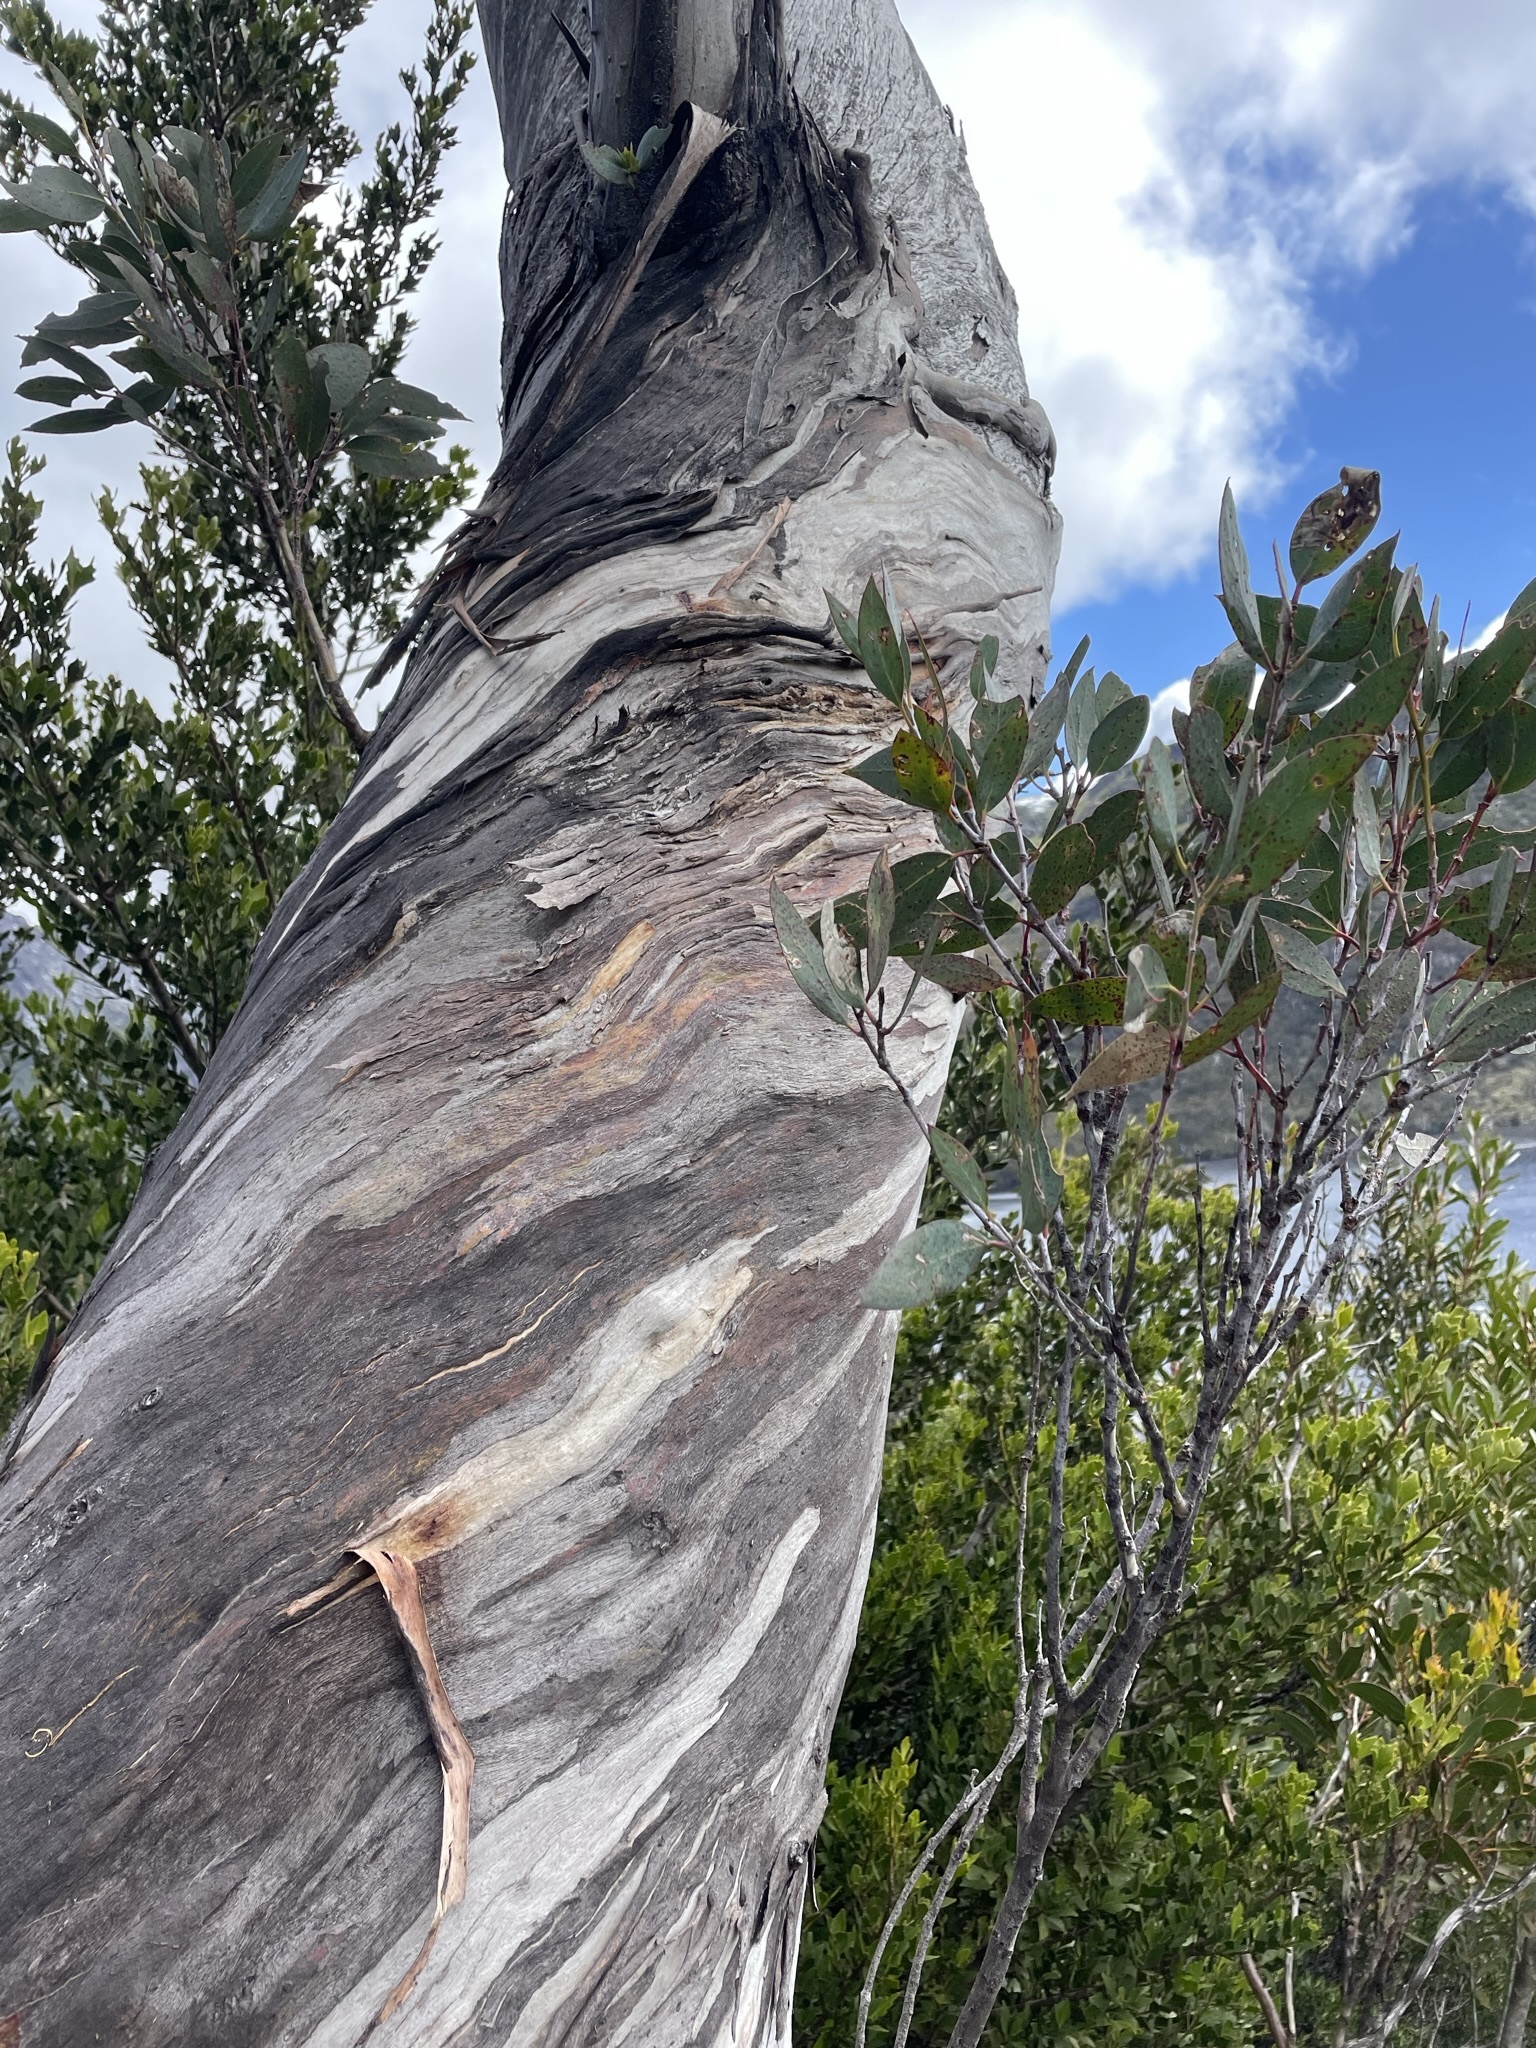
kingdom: Plantae
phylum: Tracheophyta
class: Magnoliopsida
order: Myrtales
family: Myrtaceae
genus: Eucalyptus
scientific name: Eucalyptus coccifera
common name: Tasmanian snow-gum
